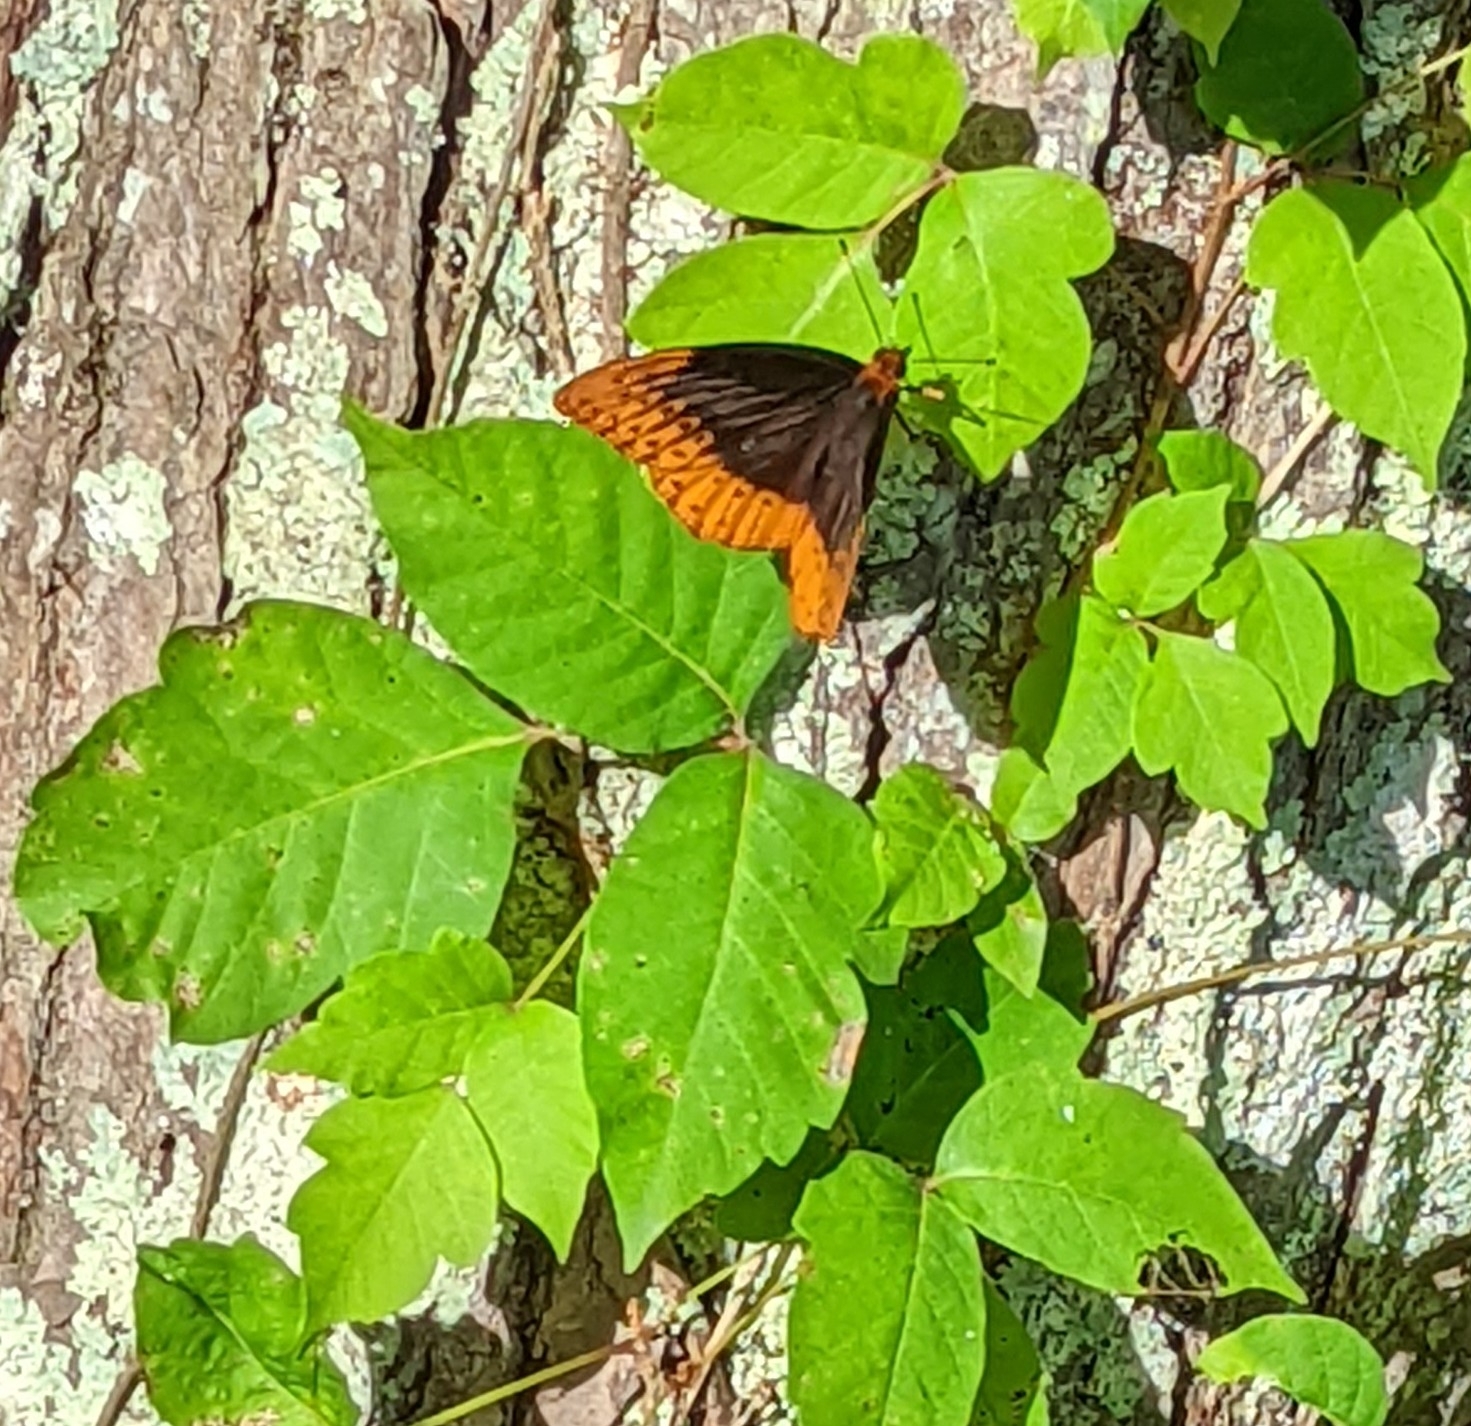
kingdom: Animalia
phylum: Arthropoda
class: Insecta
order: Lepidoptera
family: Nymphalidae
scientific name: Nymphalidae
